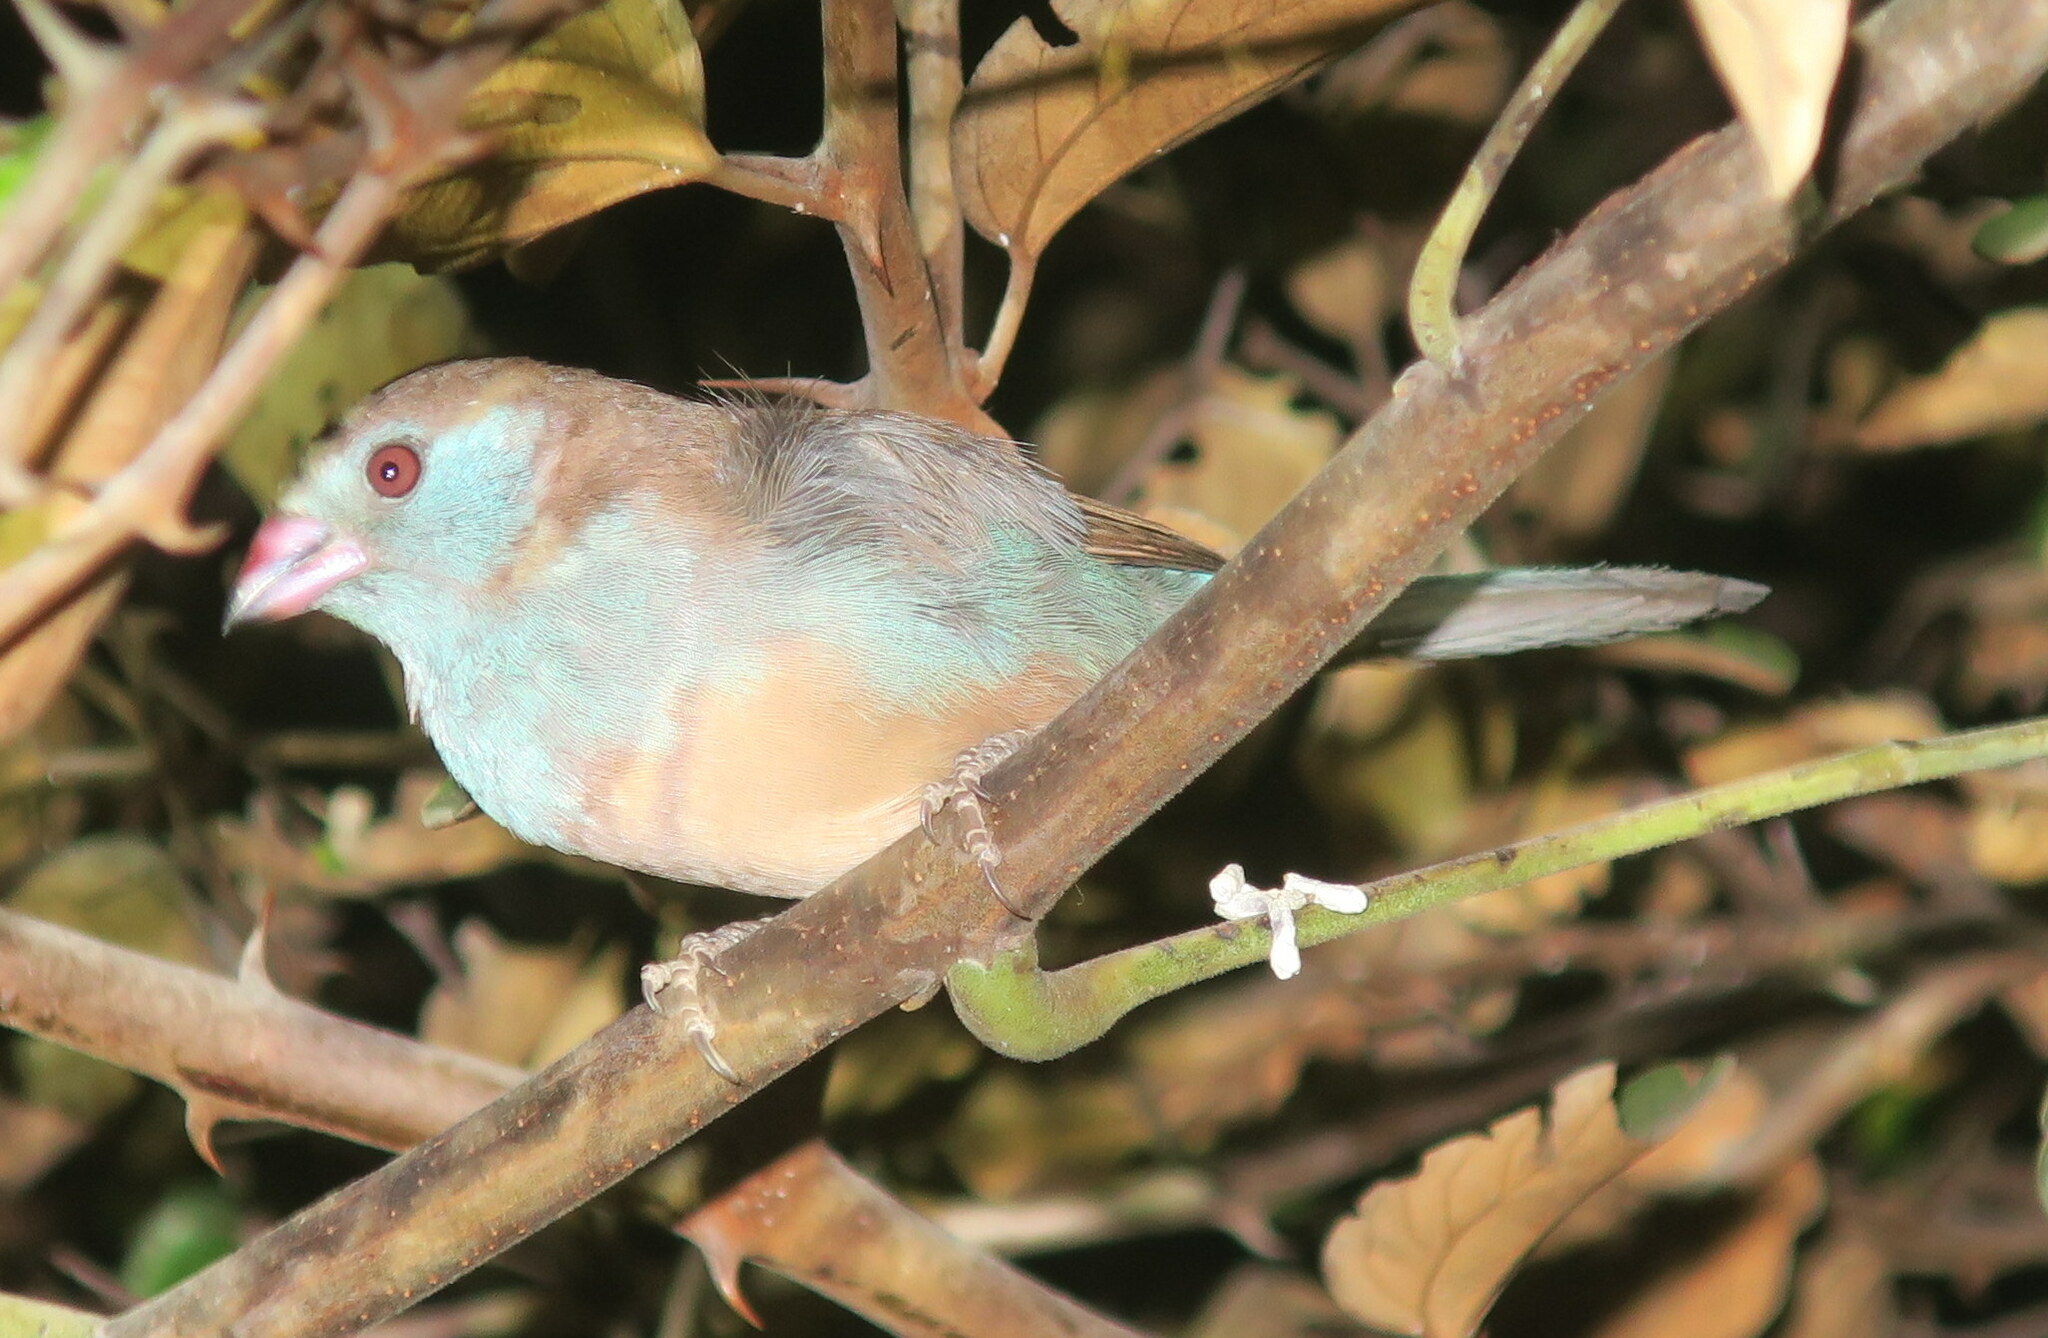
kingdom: Animalia
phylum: Chordata
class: Aves
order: Passeriformes
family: Estrildidae
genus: Uraeginthus
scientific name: Uraeginthus bengalus
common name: Red-cheeked cordon-bleu
